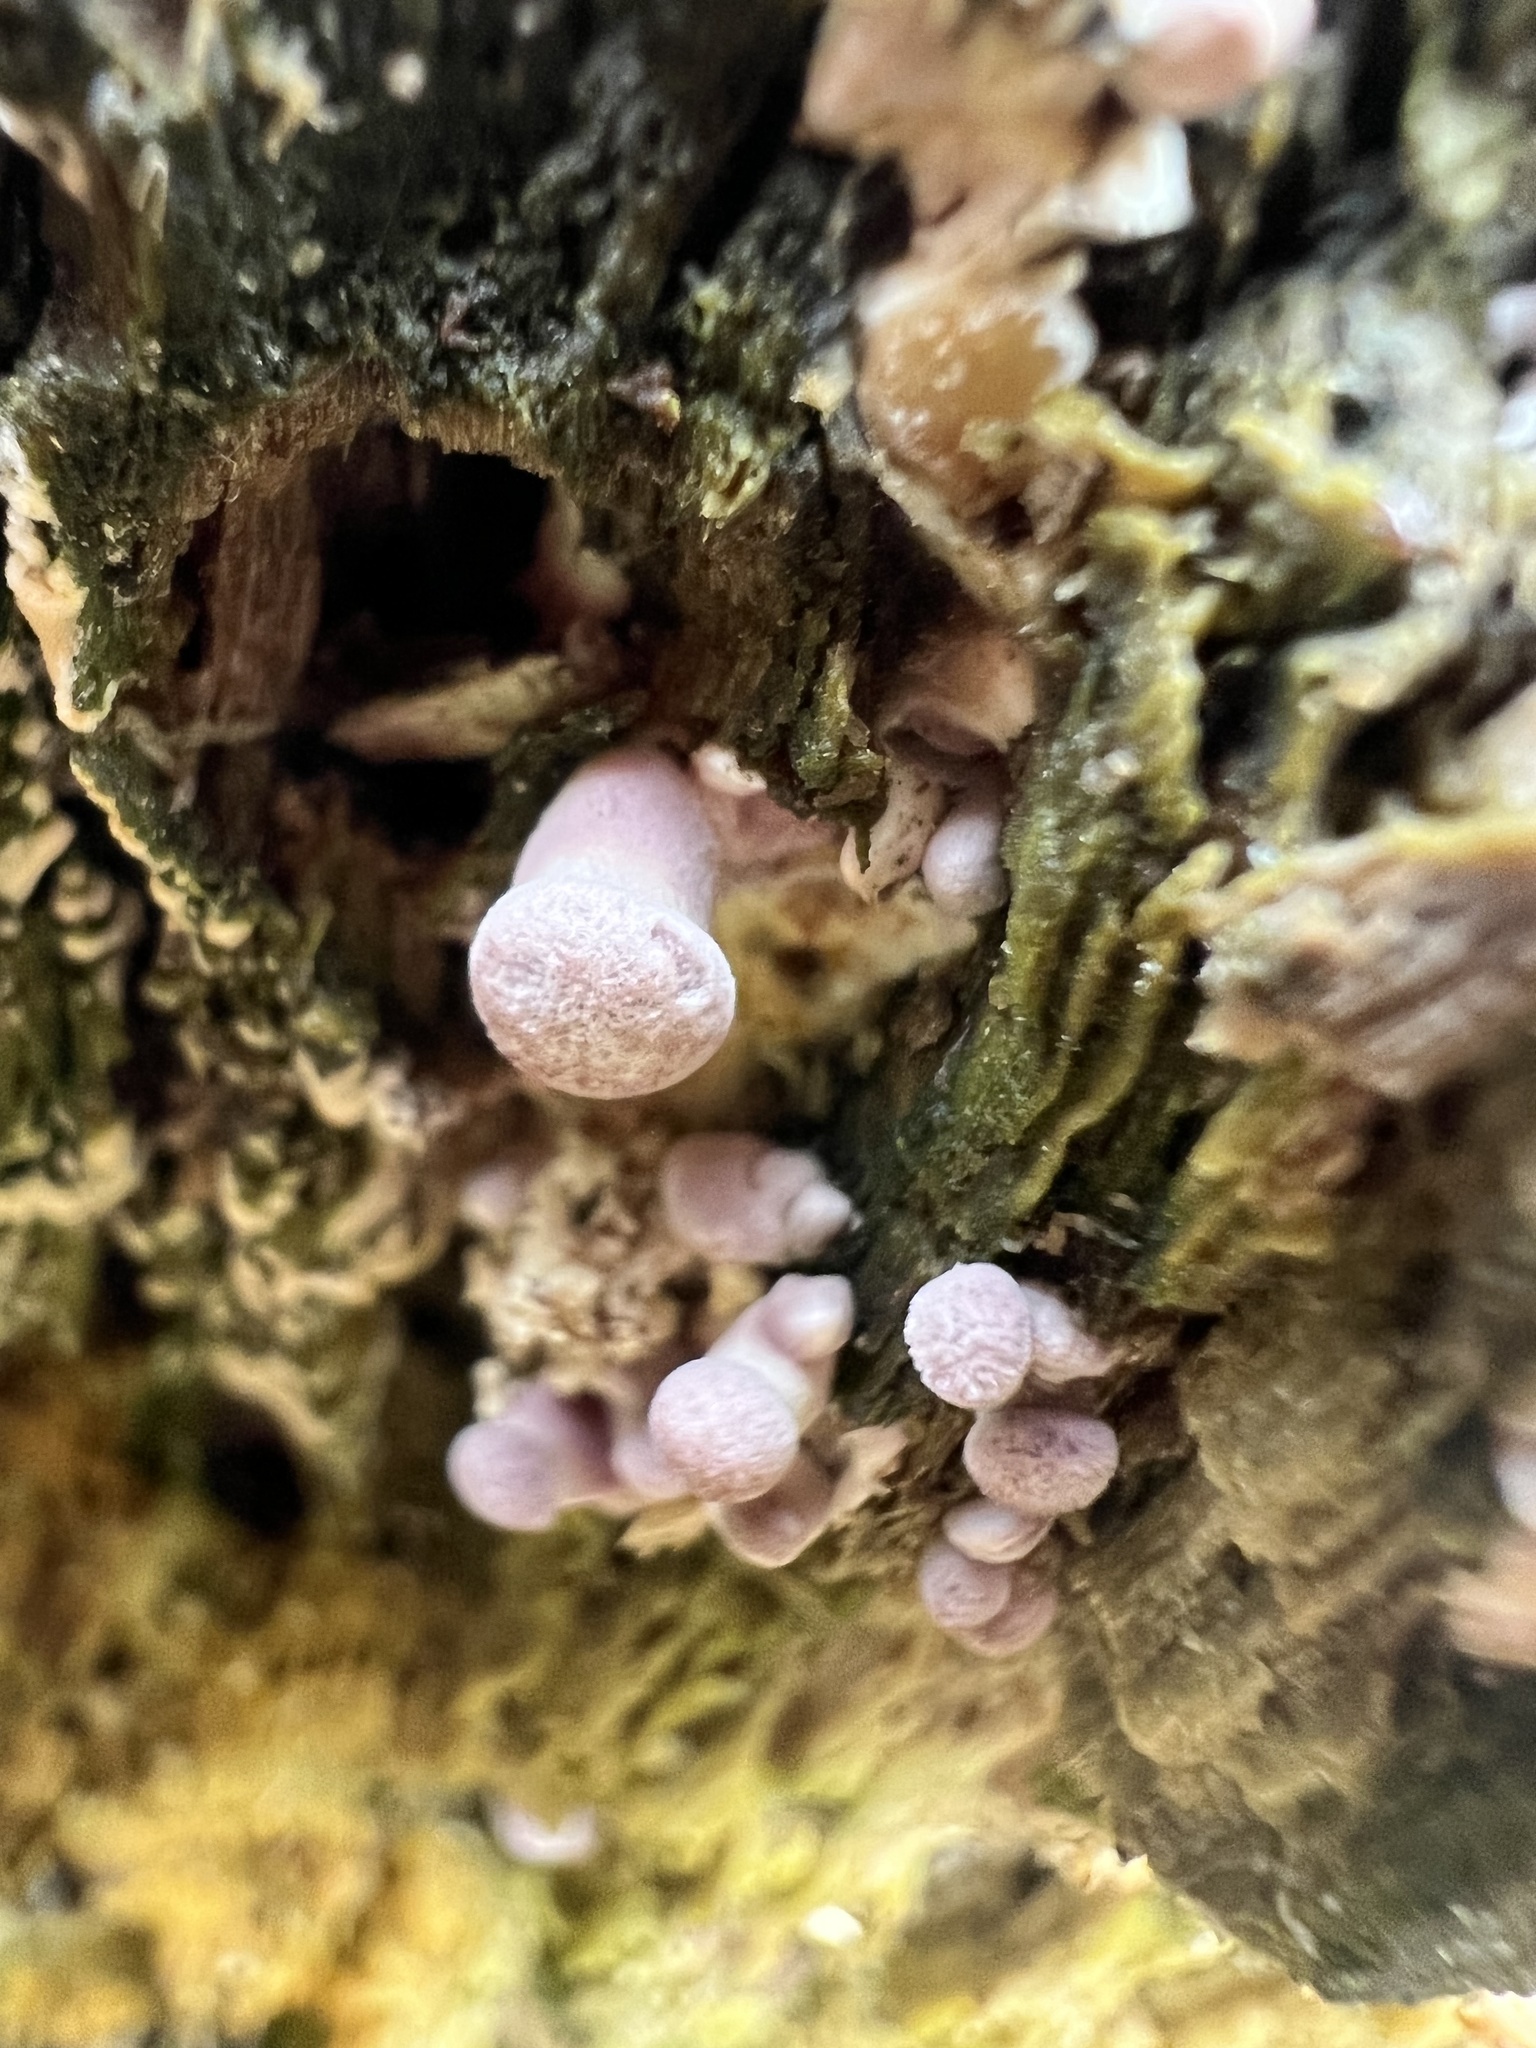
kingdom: Fungi
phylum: Basidiomycota
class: Agaricomycetes
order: Polyporales
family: Panaceae
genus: Panus
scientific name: Panus neostrigosus
